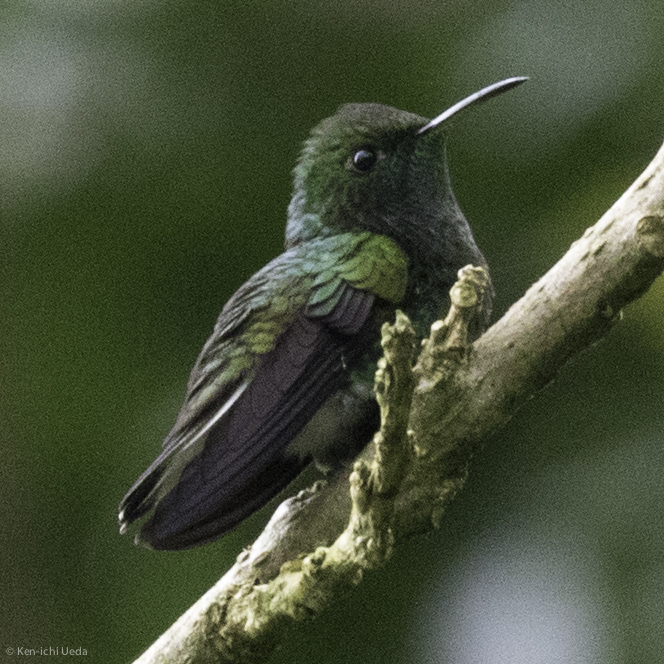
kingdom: Animalia
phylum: Chordata
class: Aves
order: Apodiformes
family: Trochilidae
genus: Microchera
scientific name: Microchera cupreiceps
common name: Coppery-headed emerald
